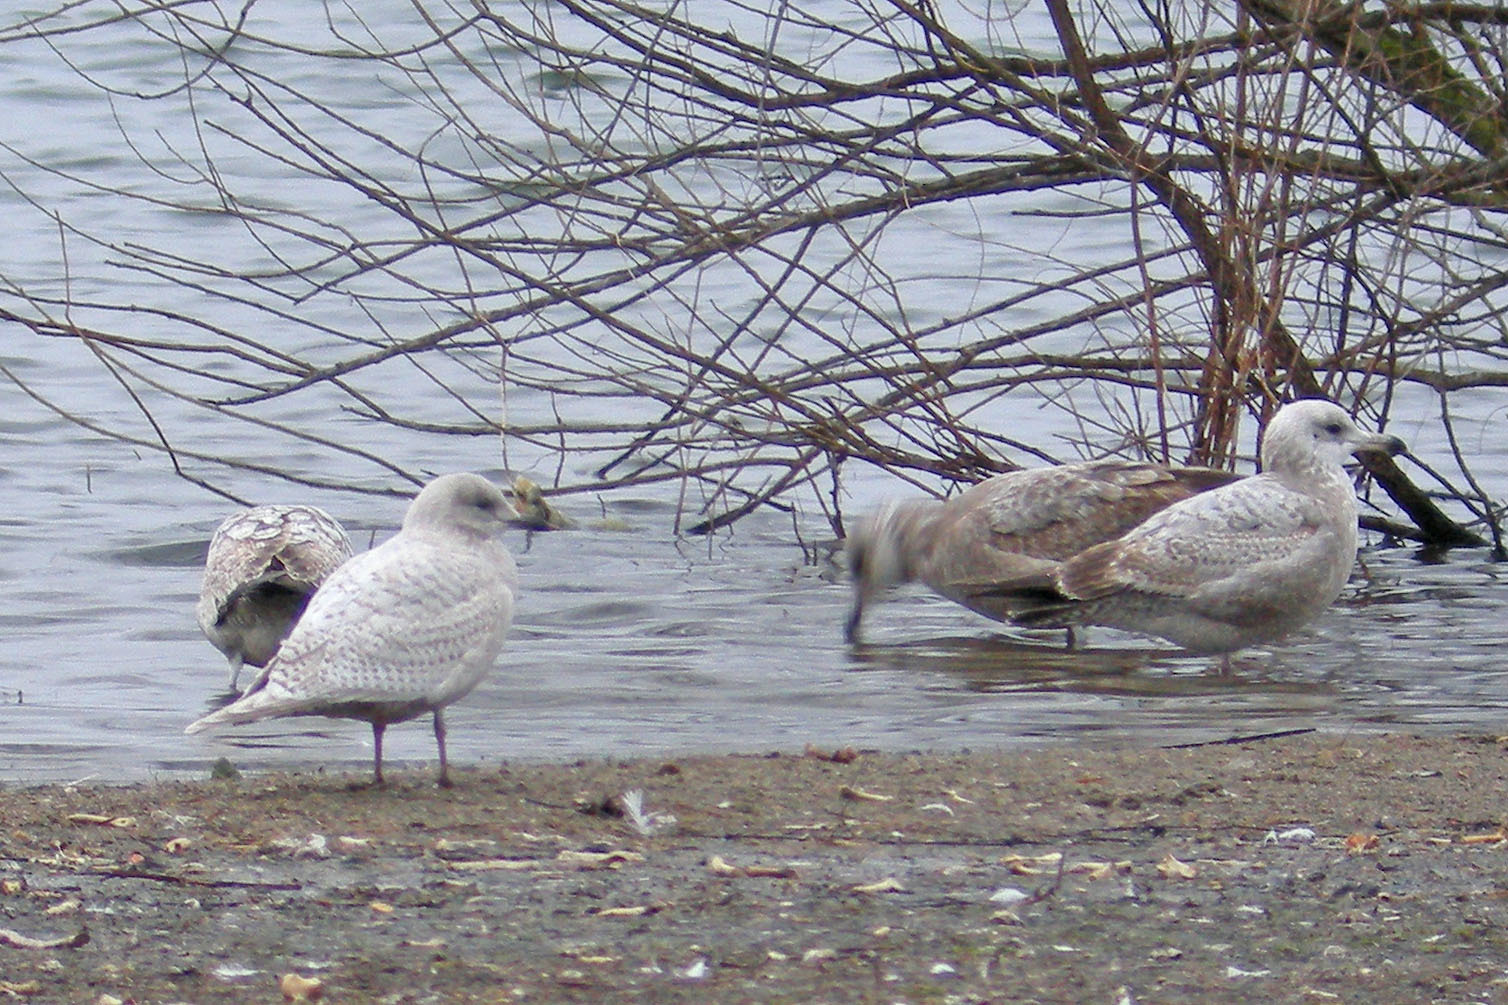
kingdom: Animalia
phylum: Chordata
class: Aves
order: Charadriiformes
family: Laridae
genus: Larus
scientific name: Larus glaucoides
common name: Iceland gull
